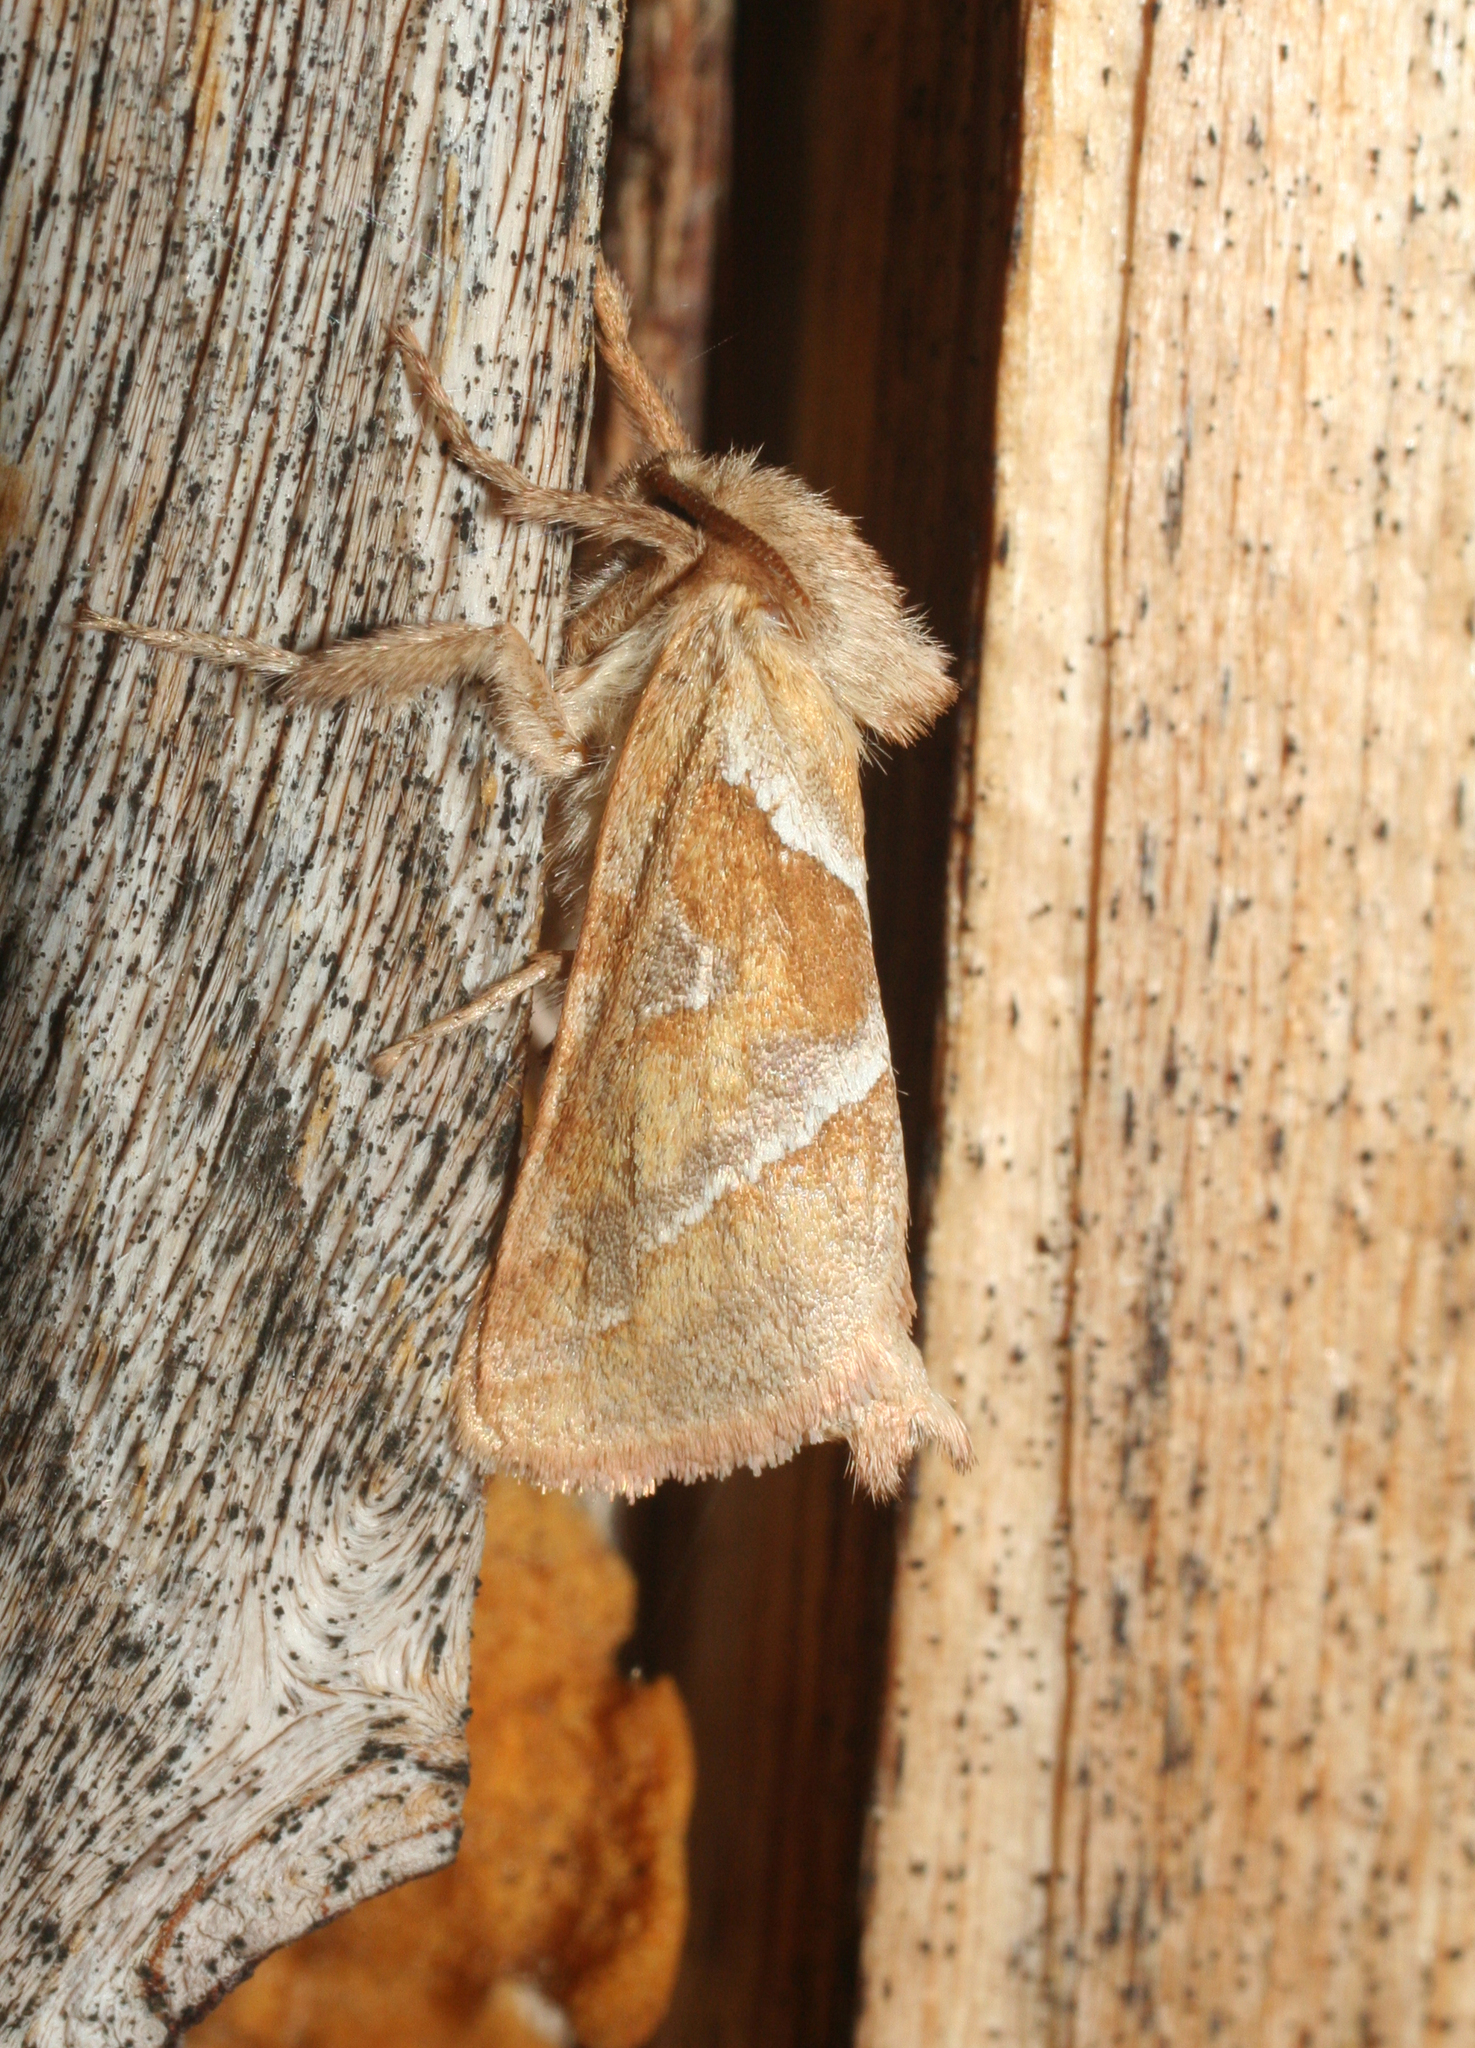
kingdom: Animalia
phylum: Arthropoda
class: Insecta
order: Lepidoptera
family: Hepialidae
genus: Triodia
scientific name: Triodia sylvina
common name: Orange swift
